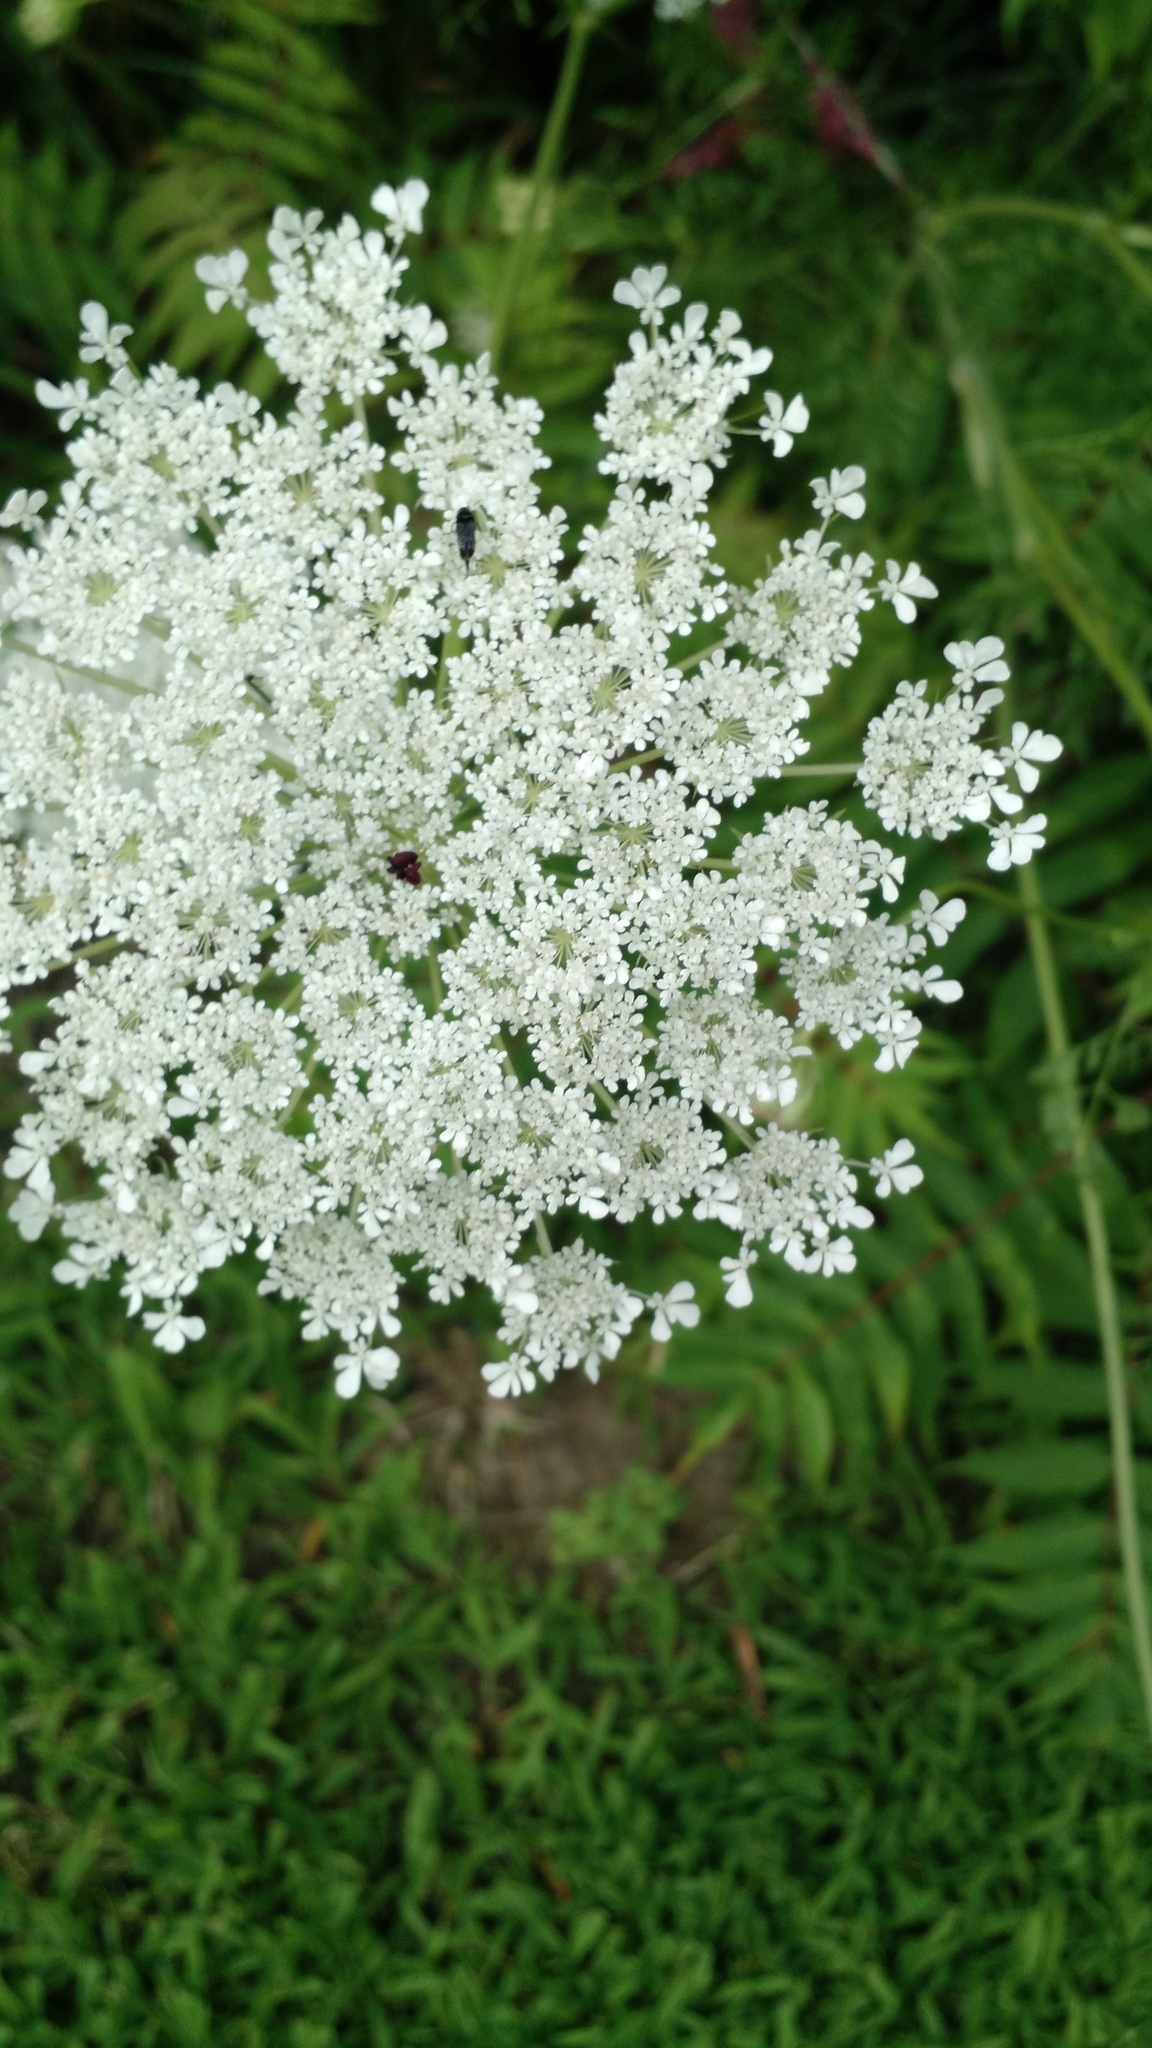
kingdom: Plantae
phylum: Tracheophyta
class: Magnoliopsida
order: Apiales
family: Apiaceae
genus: Daucus
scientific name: Daucus carota
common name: Wild carrot
